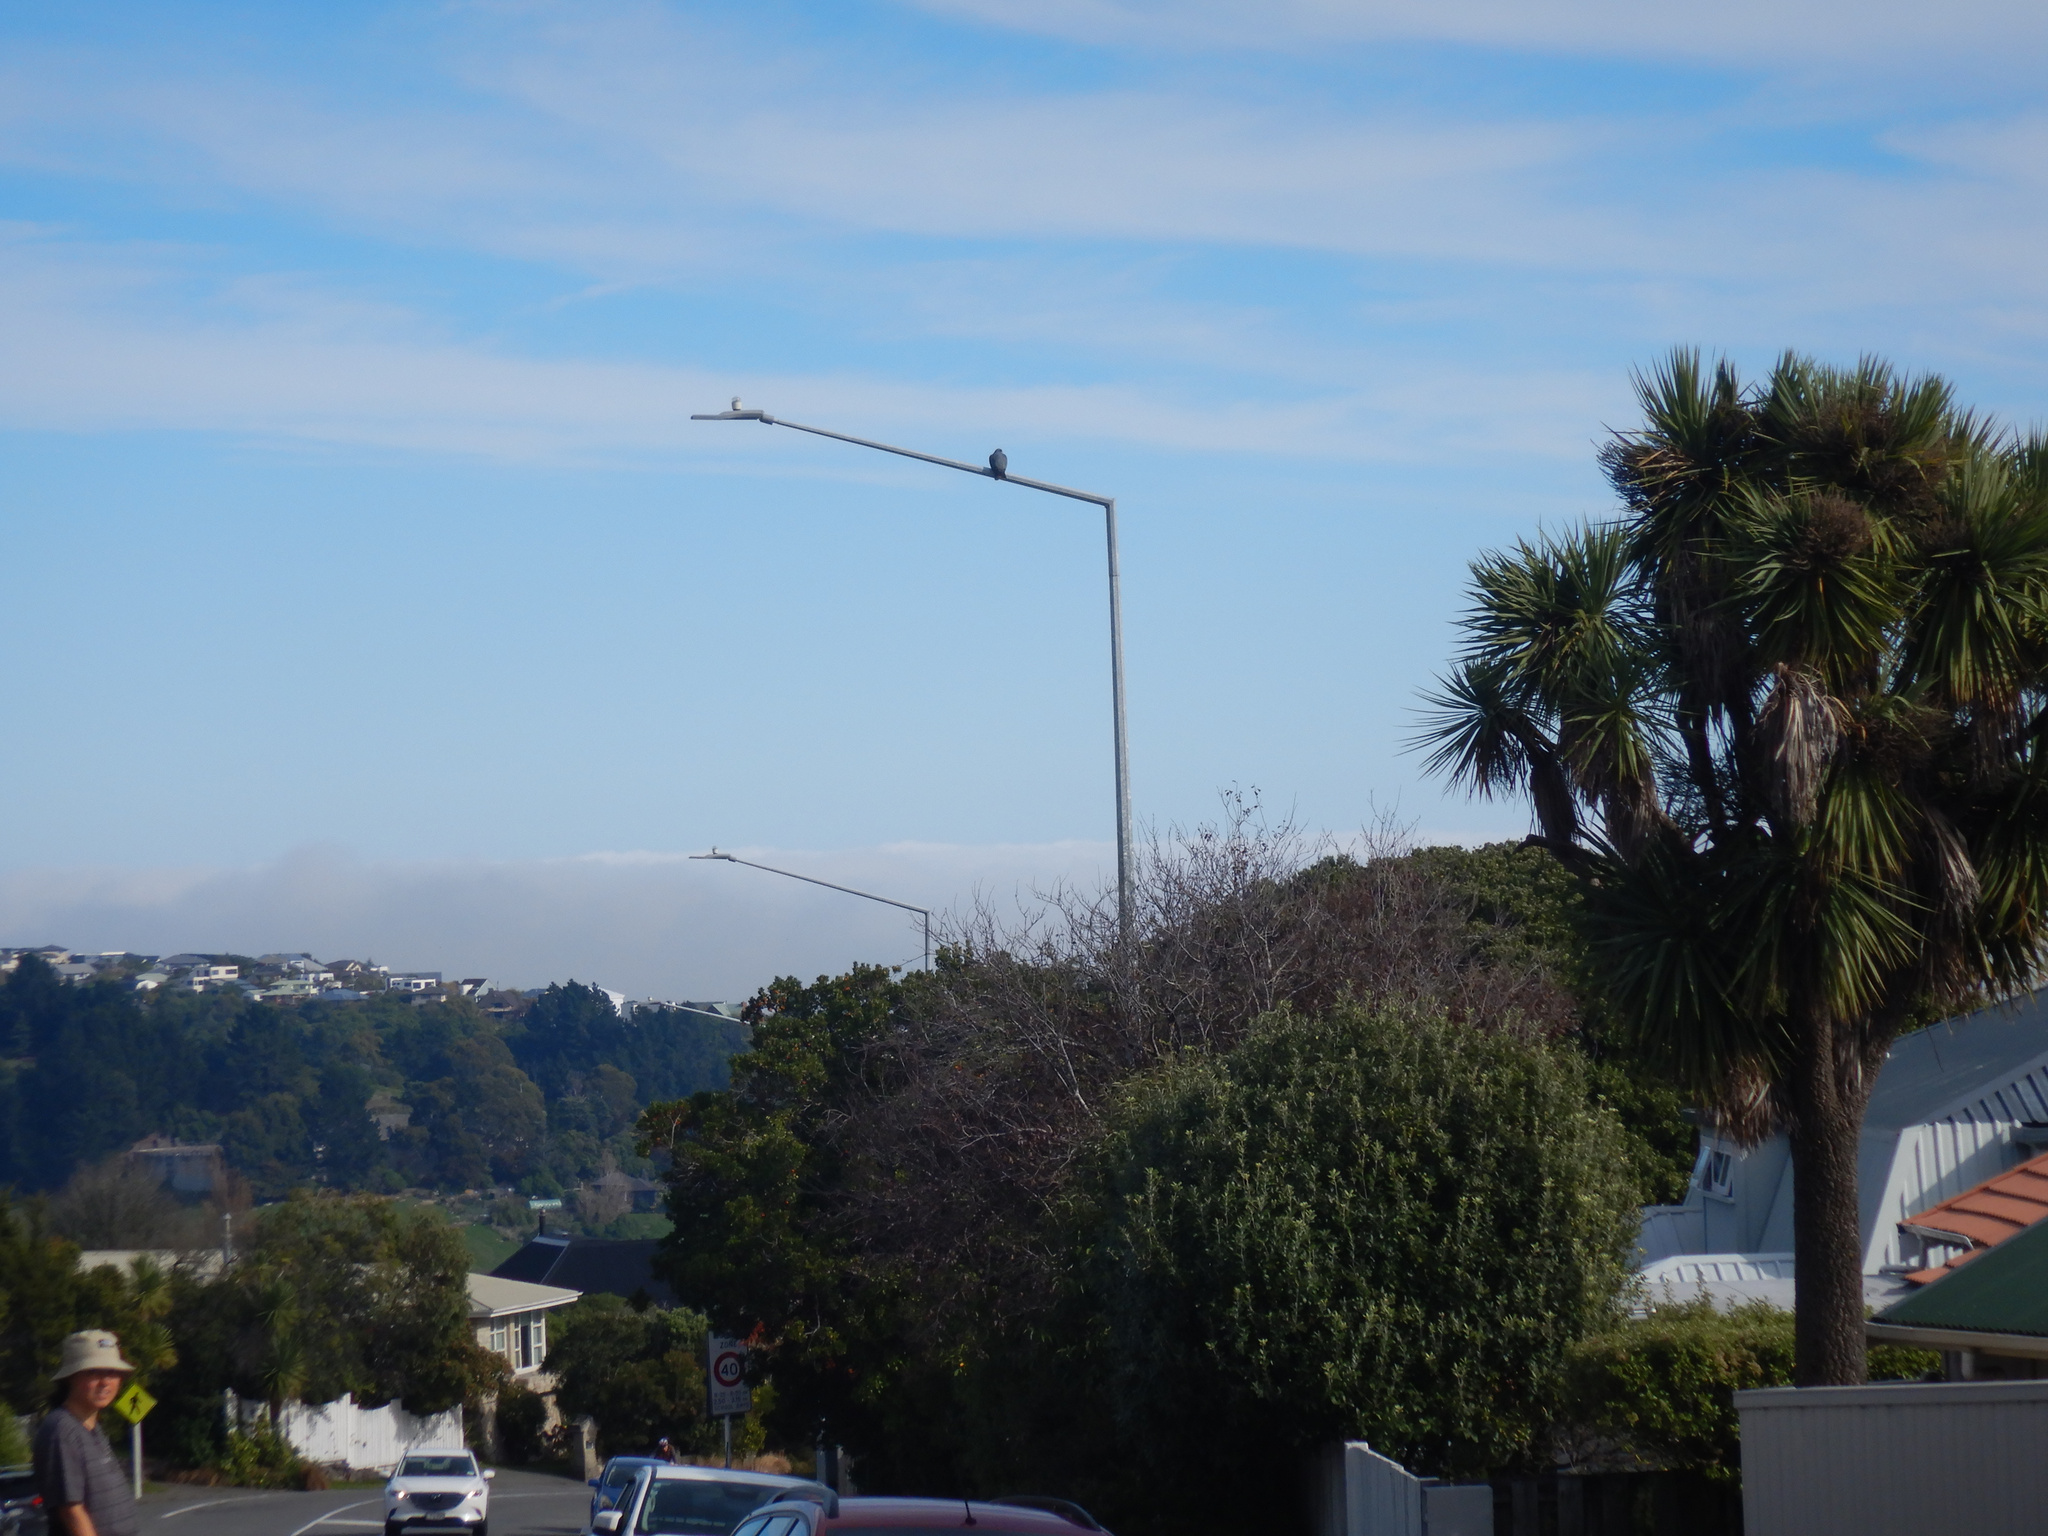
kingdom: Animalia
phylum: Chordata
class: Aves
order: Columbiformes
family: Columbidae
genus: Hemiphaga
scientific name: Hemiphaga novaeseelandiae
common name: New zealand pigeon
